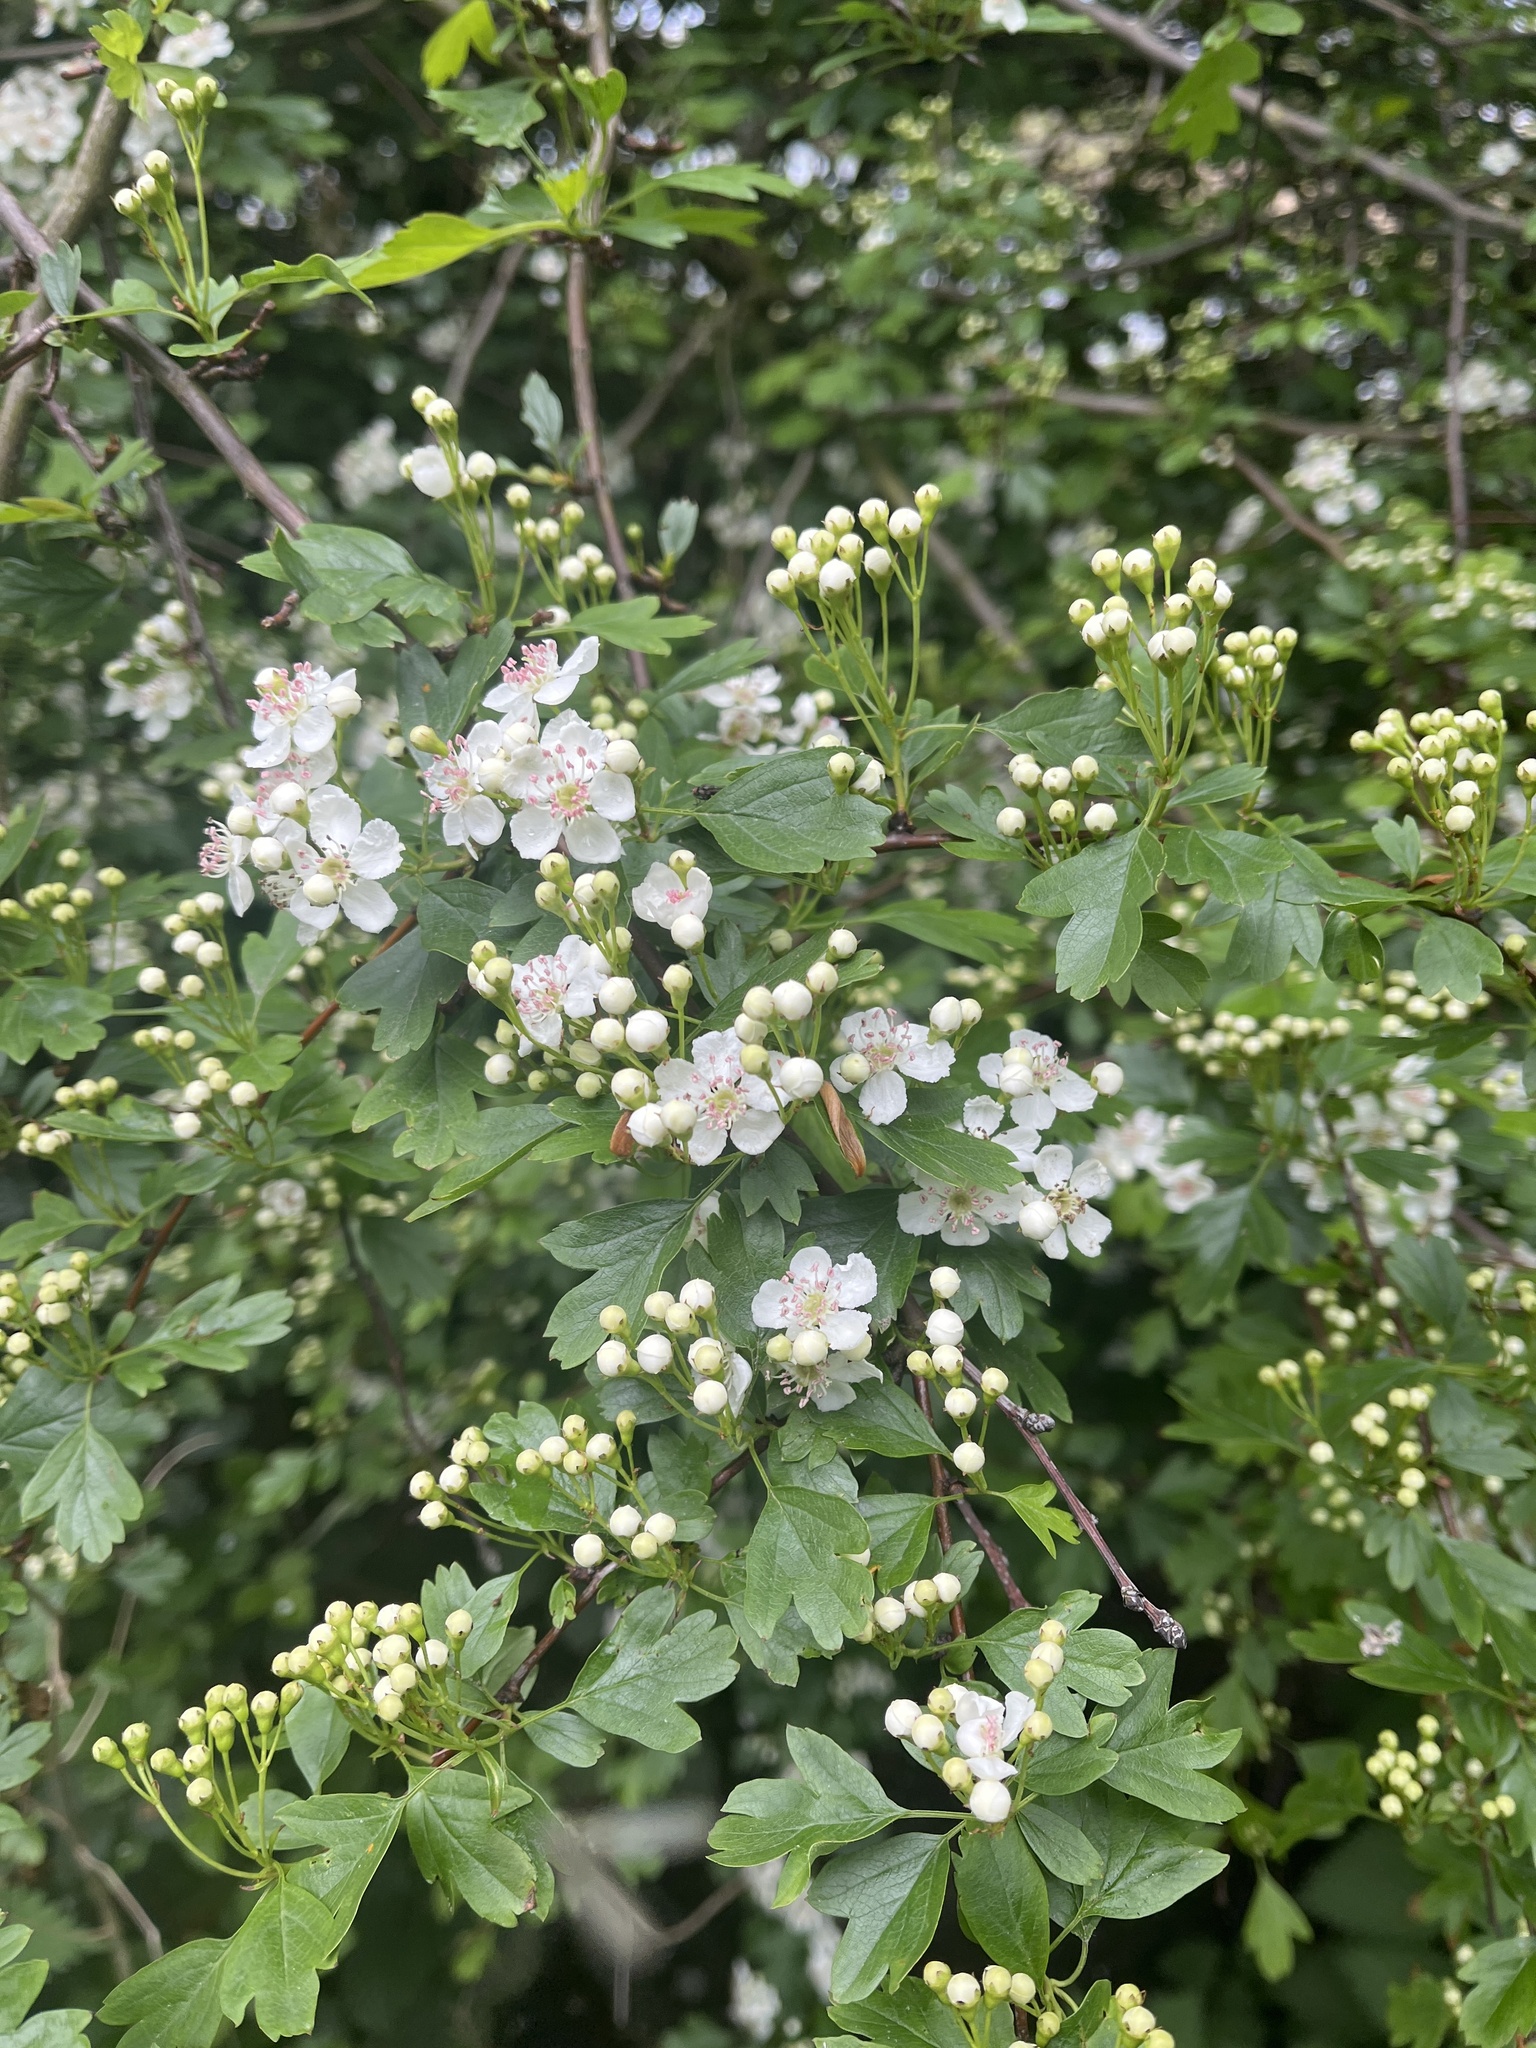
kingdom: Plantae
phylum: Tracheophyta
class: Magnoliopsida
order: Rosales
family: Rosaceae
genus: Crataegus
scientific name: Crataegus monogyna
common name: Hawthorn
